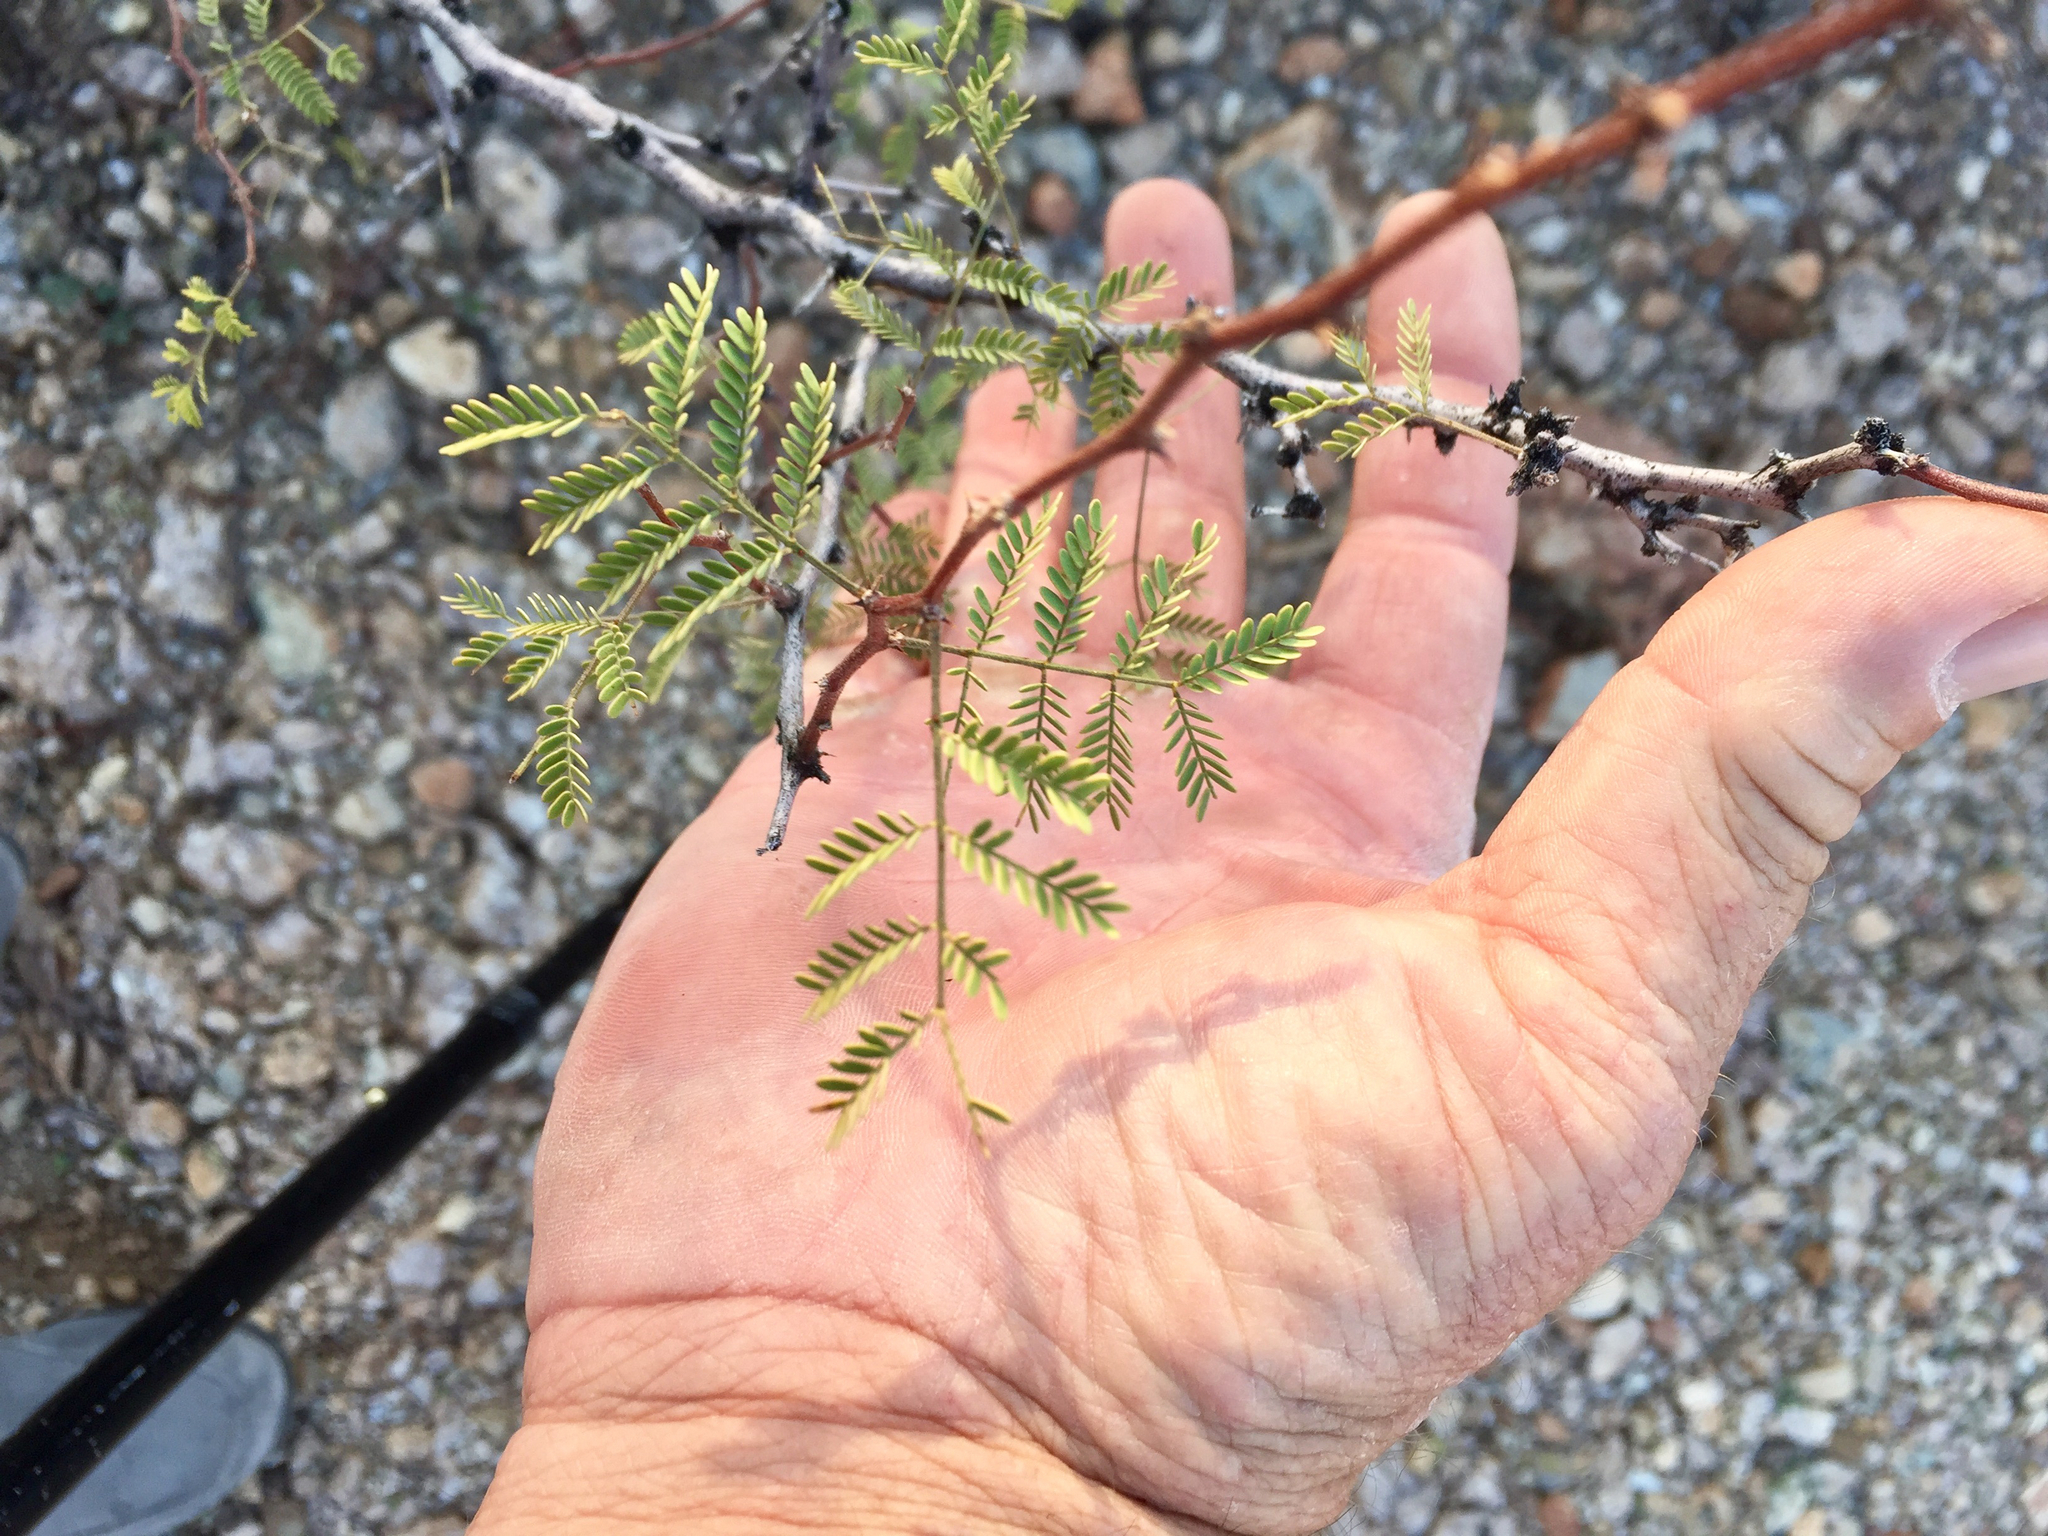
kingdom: Plantae
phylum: Tracheophyta
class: Magnoliopsida
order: Fabales
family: Fabaceae
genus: Vachellia
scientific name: Vachellia constricta
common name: Mescat acacia
